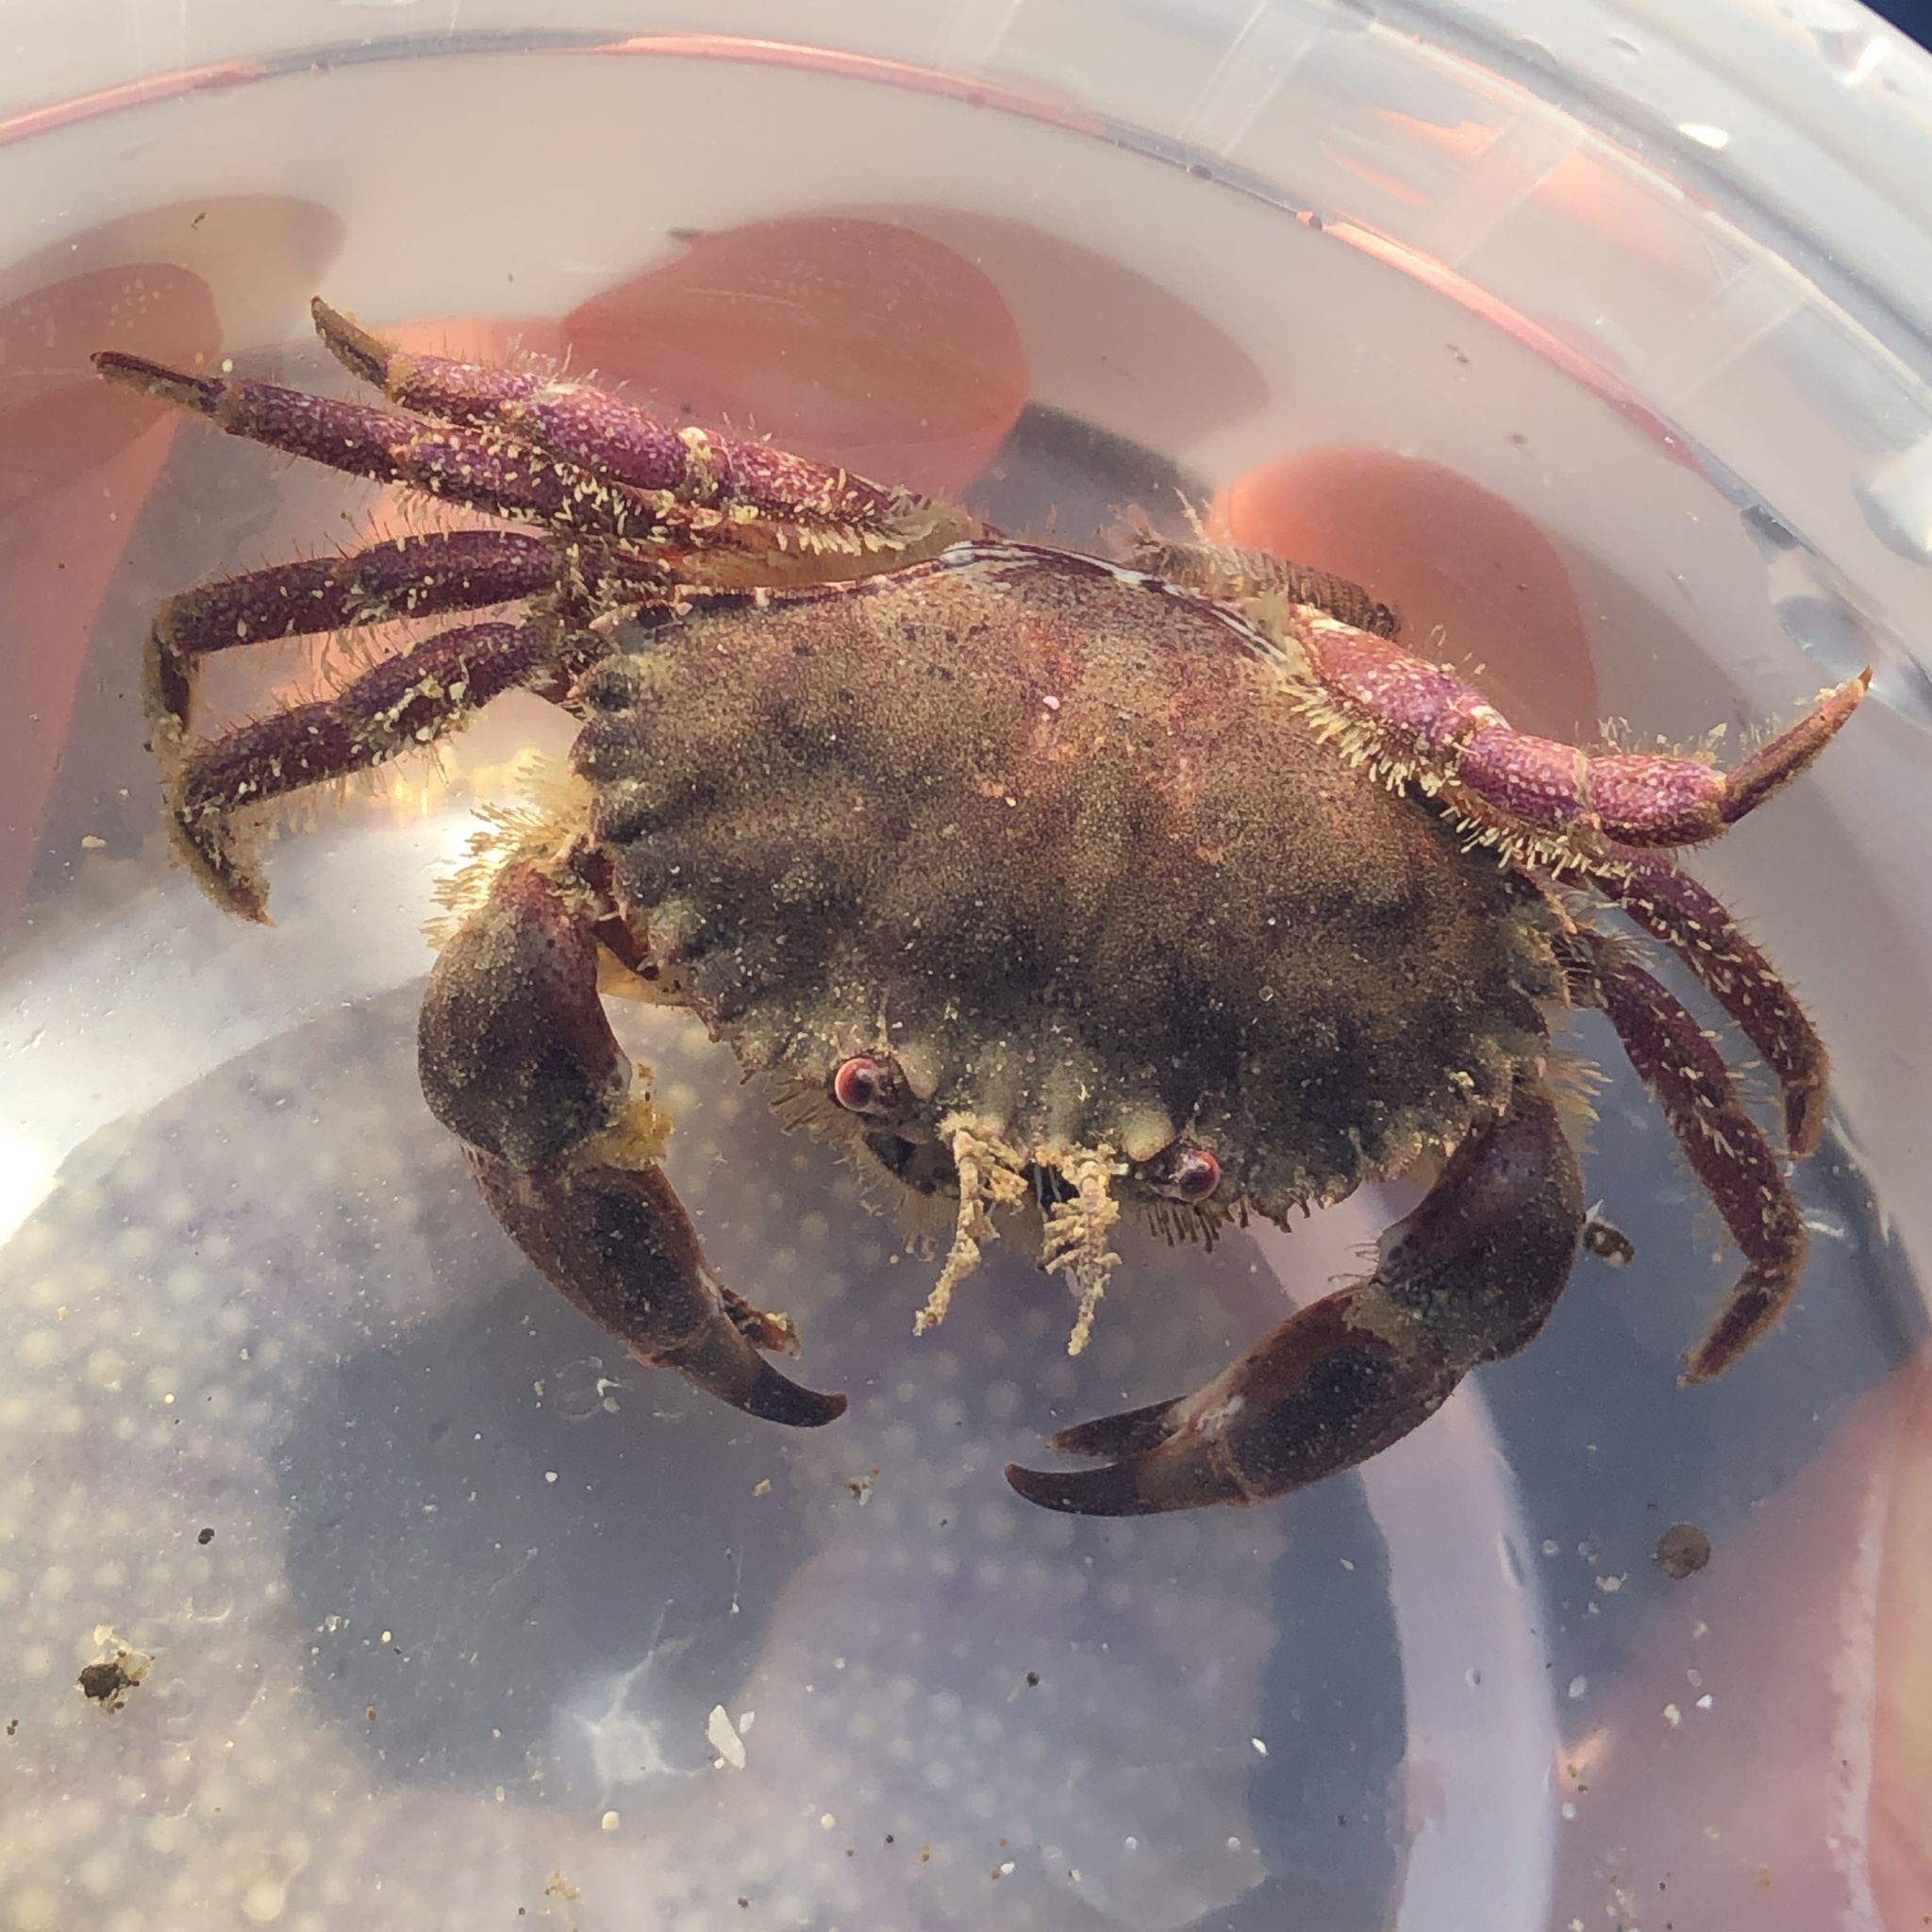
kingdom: Animalia
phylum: Arthropoda
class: Malacostraca
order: Decapoda
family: Cancridae
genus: Romaleon
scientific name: Romaleon antennarium
